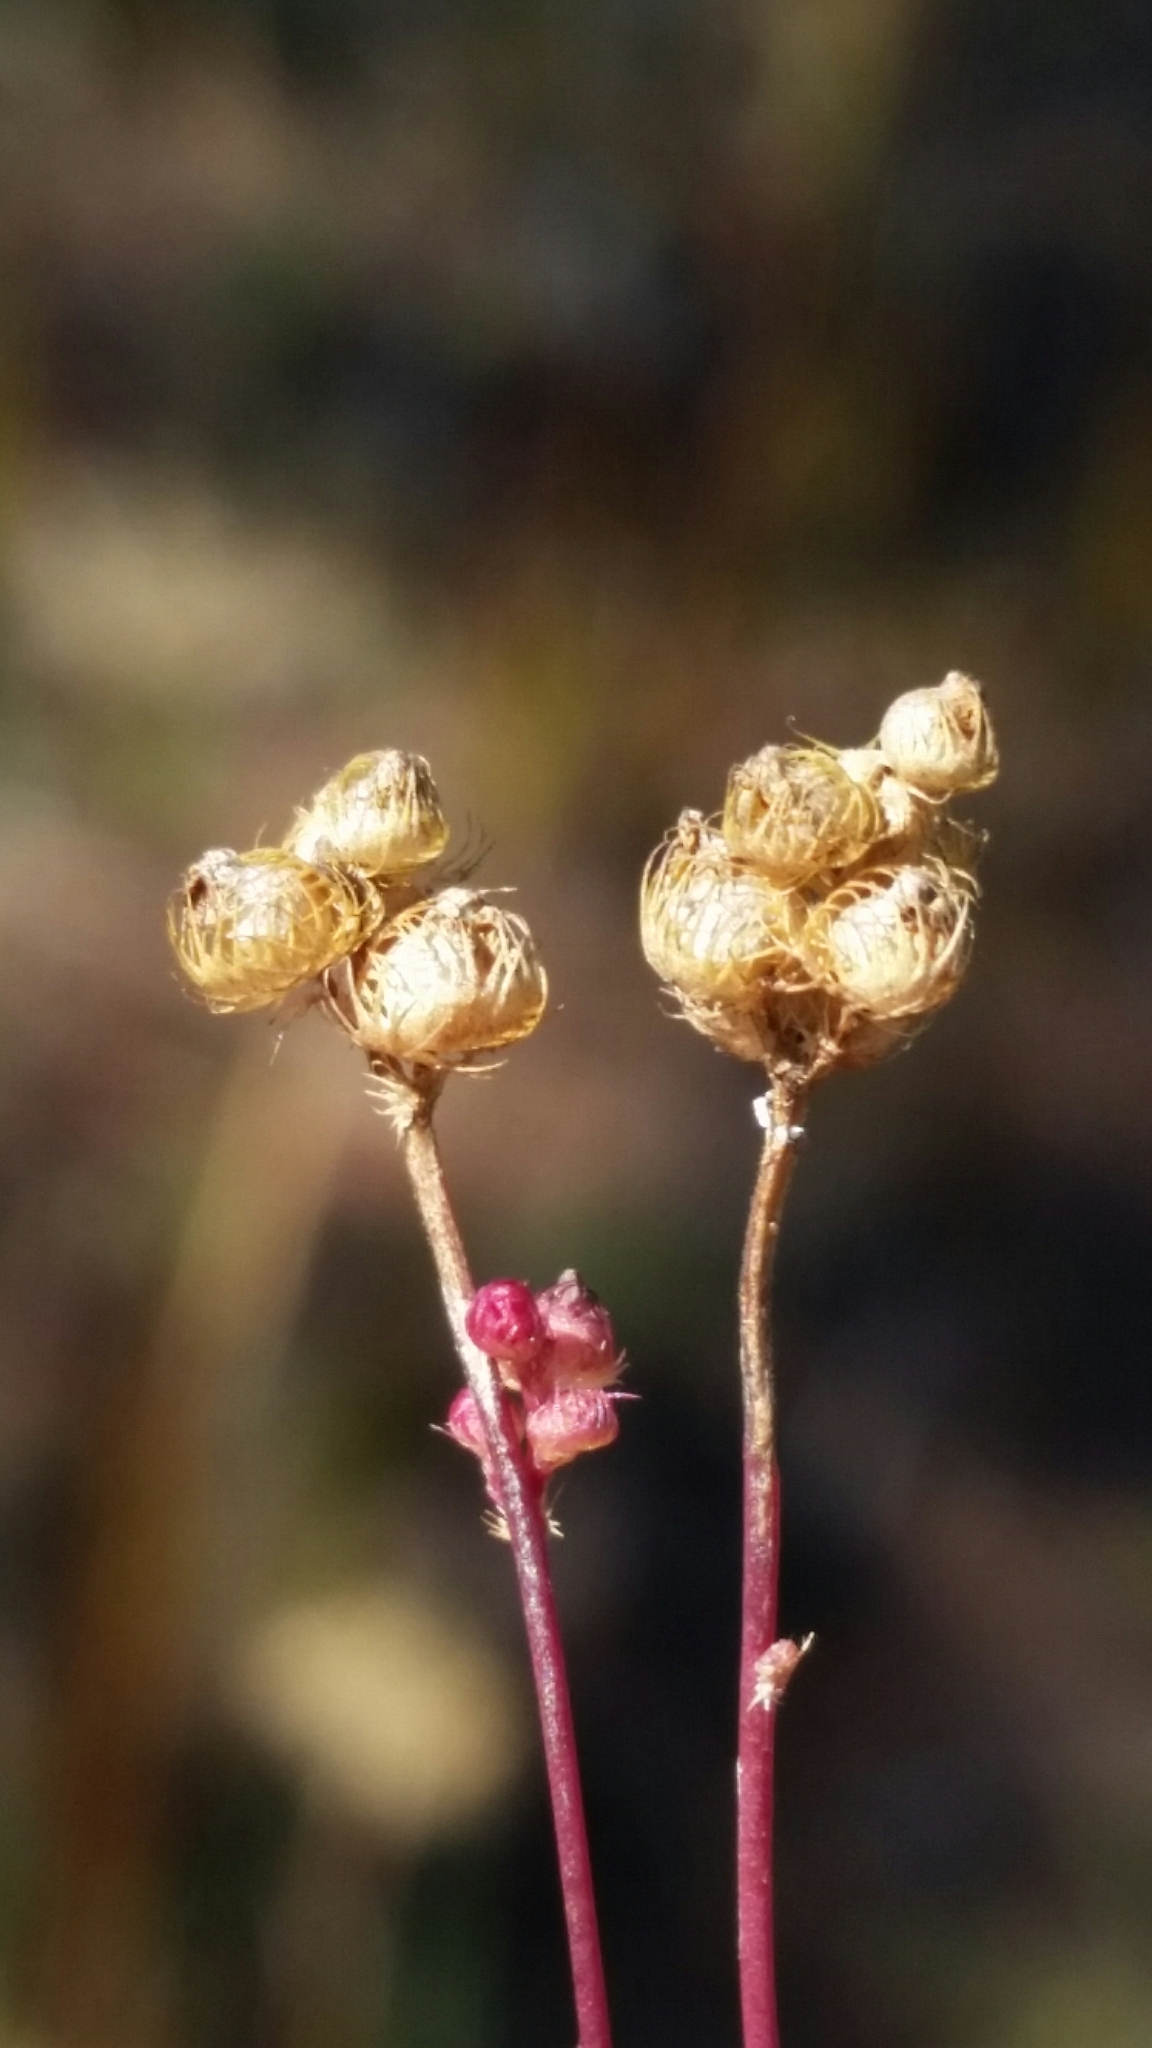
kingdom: Plantae
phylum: Tracheophyta
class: Magnoliopsida
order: Lamiales
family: Lentibulariaceae
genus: Utricularia
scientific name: Utricularia simulans
